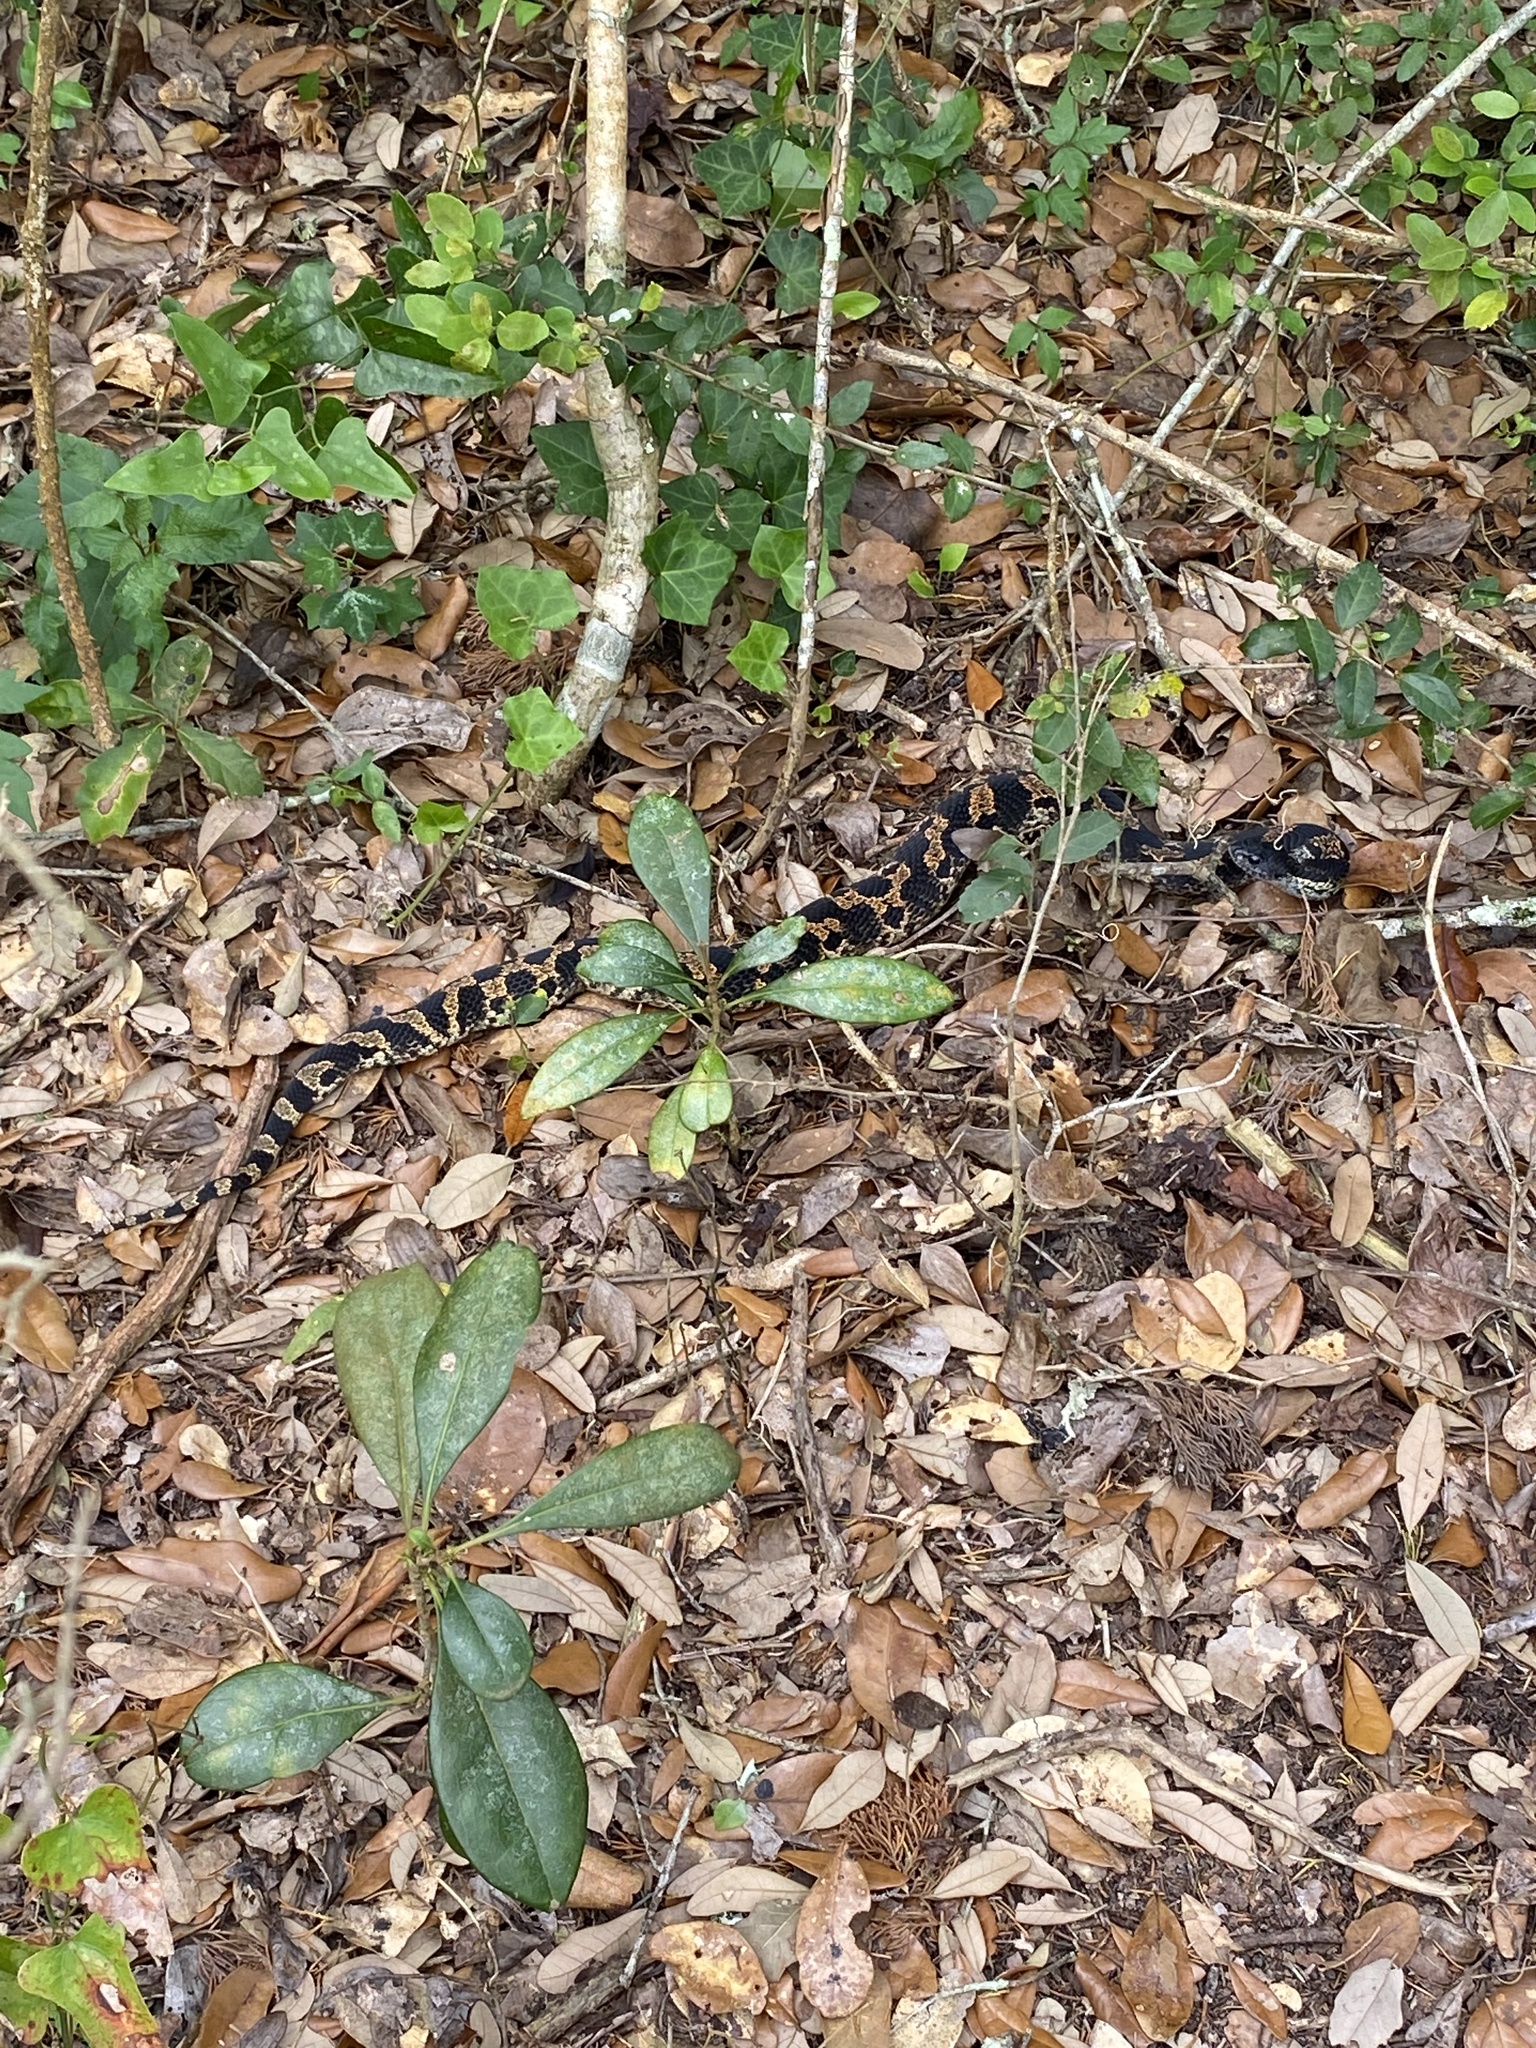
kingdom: Animalia
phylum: Chordata
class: Squamata
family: Colubridae
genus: Heterodon
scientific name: Heterodon platirhinos
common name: Eastern hognose snake
